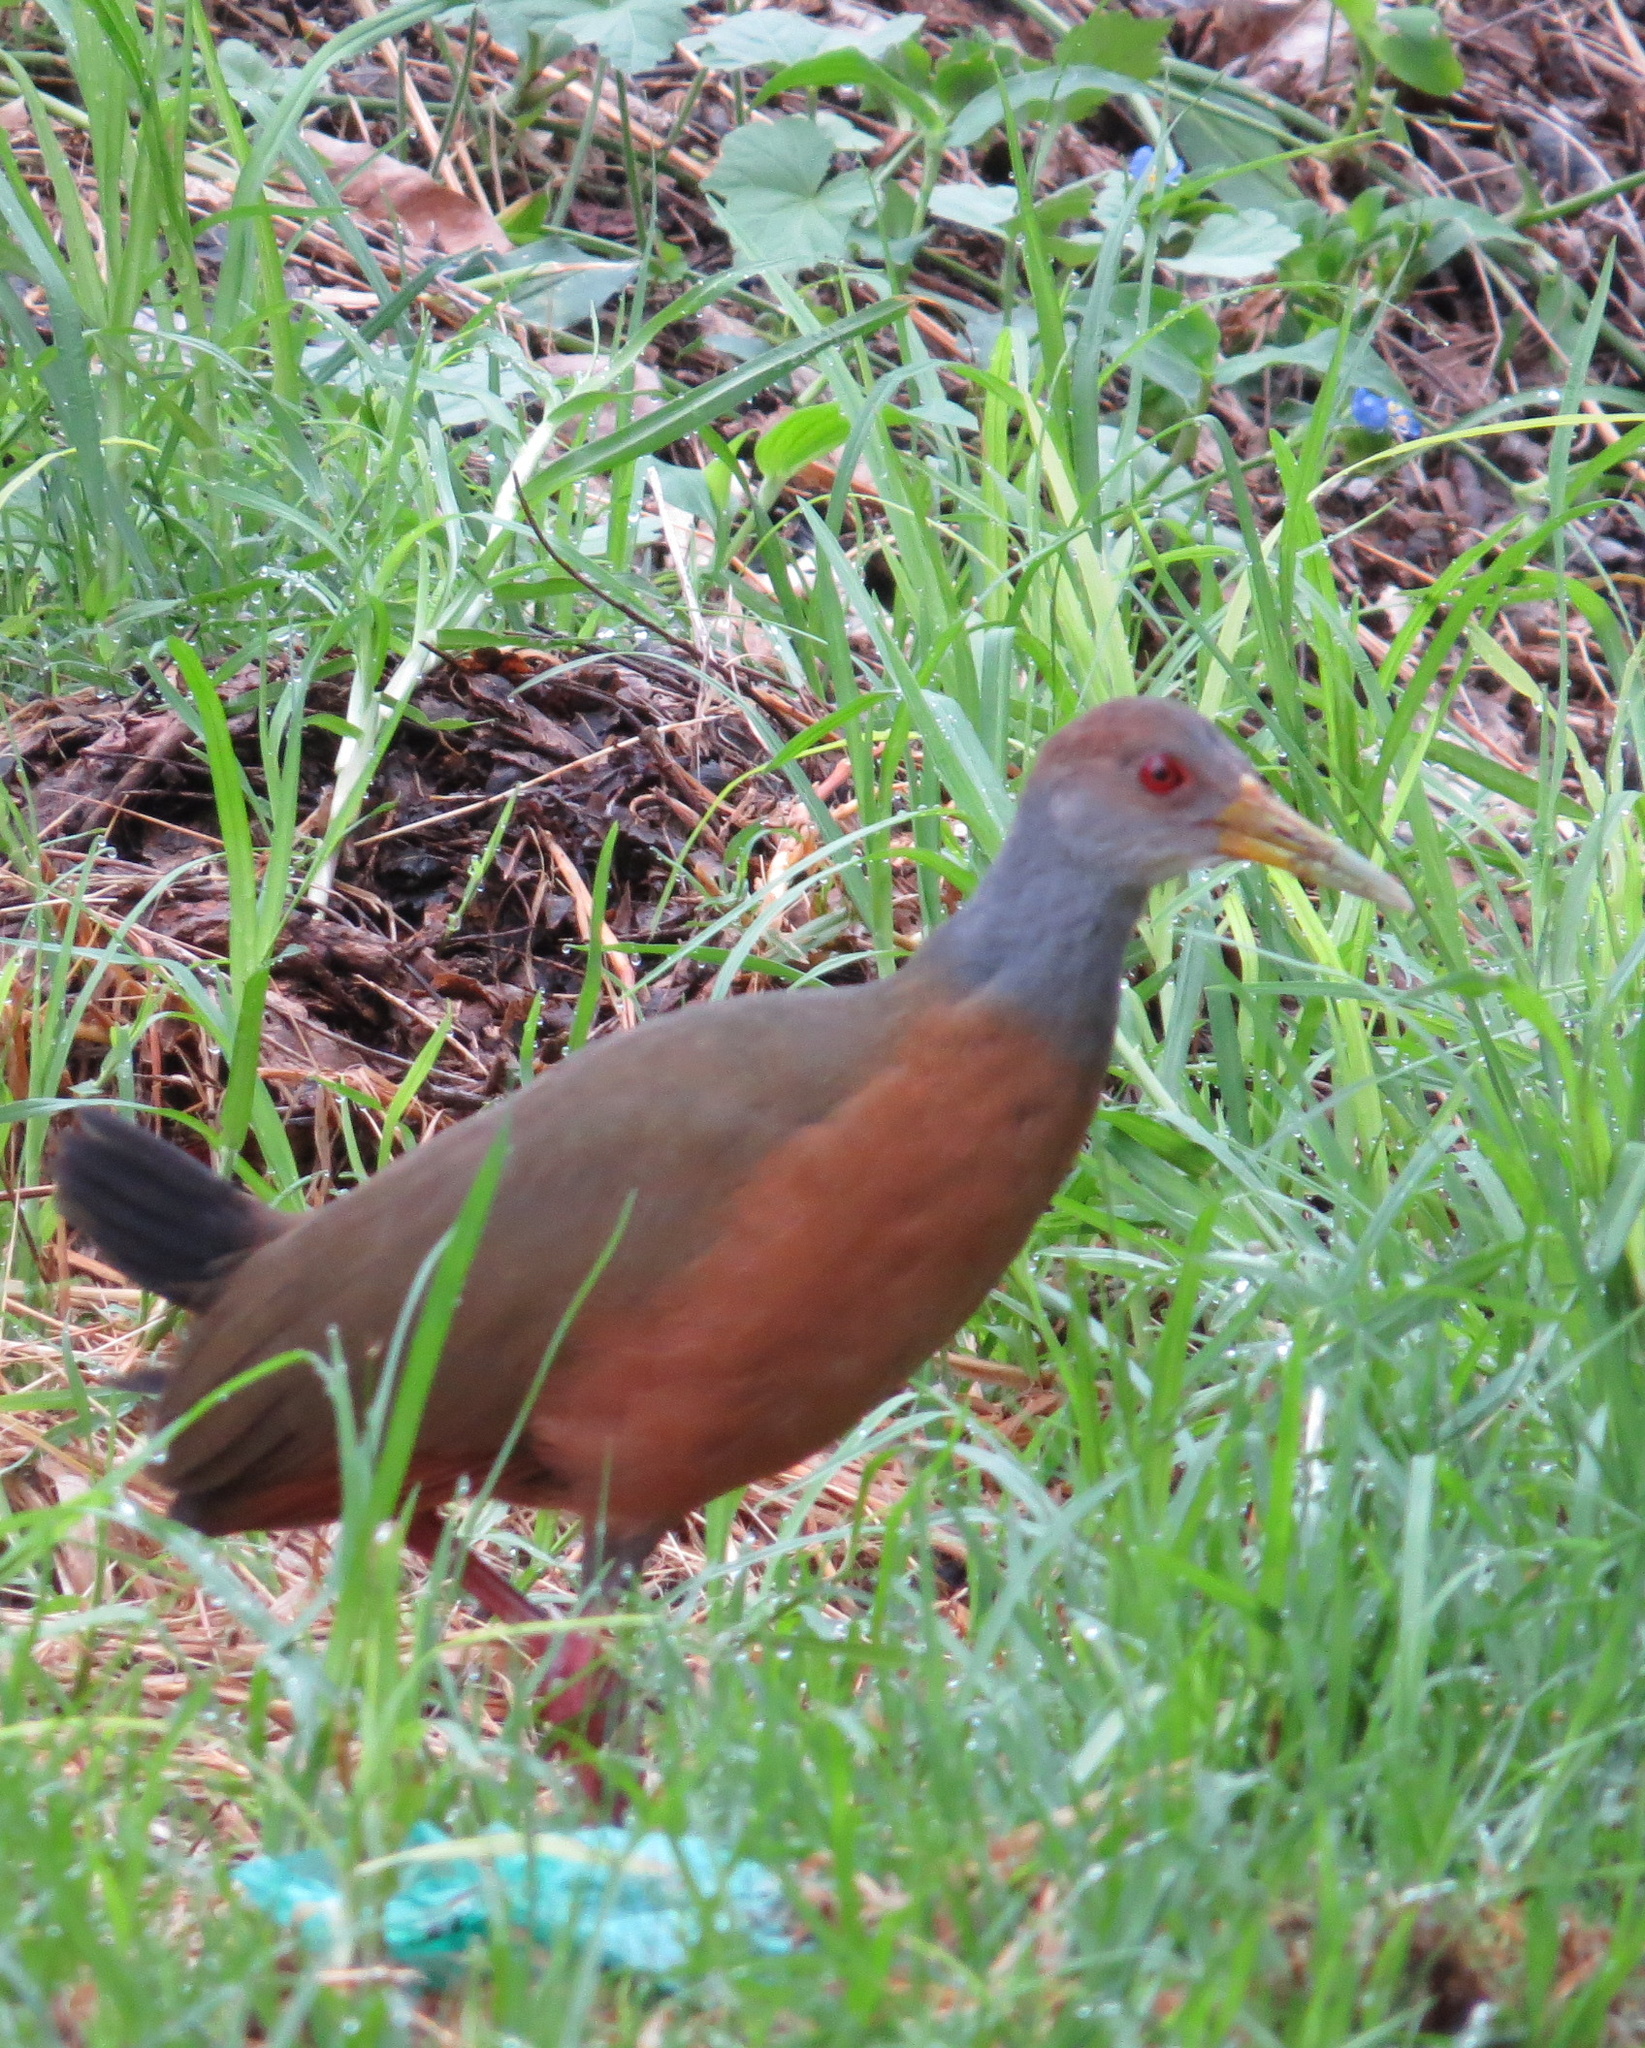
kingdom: Animalia
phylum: Chordata
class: Aves
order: Gruiformes
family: Rallidae
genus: Aramides
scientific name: Aramides cajanea
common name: Gray-necked wood-rail
